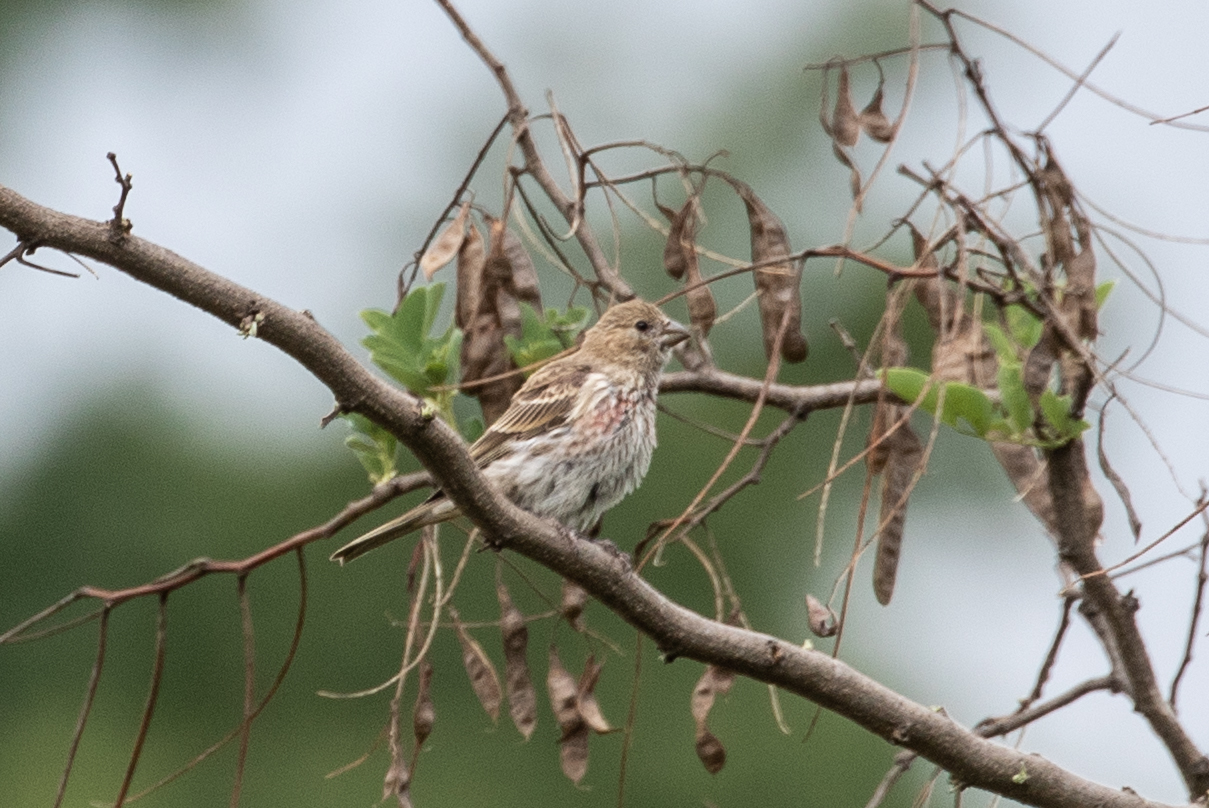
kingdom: Animalia
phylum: Chordata
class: Aves
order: Passeriformes
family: Fringillidae
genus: Haemorhous
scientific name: Haemorhous mexicanus
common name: House finch
